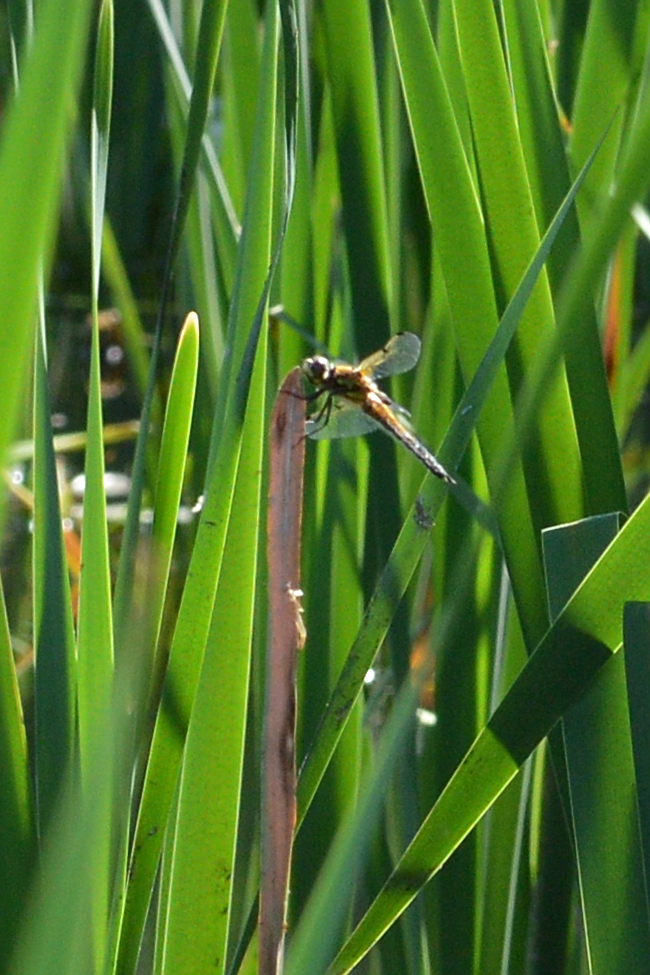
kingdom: Animalia
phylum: Arthropoda
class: Insecta
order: Odonata
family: Libellulidae
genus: Libellula
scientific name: Libellula quadrimaculata
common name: Four-spotted chaser
